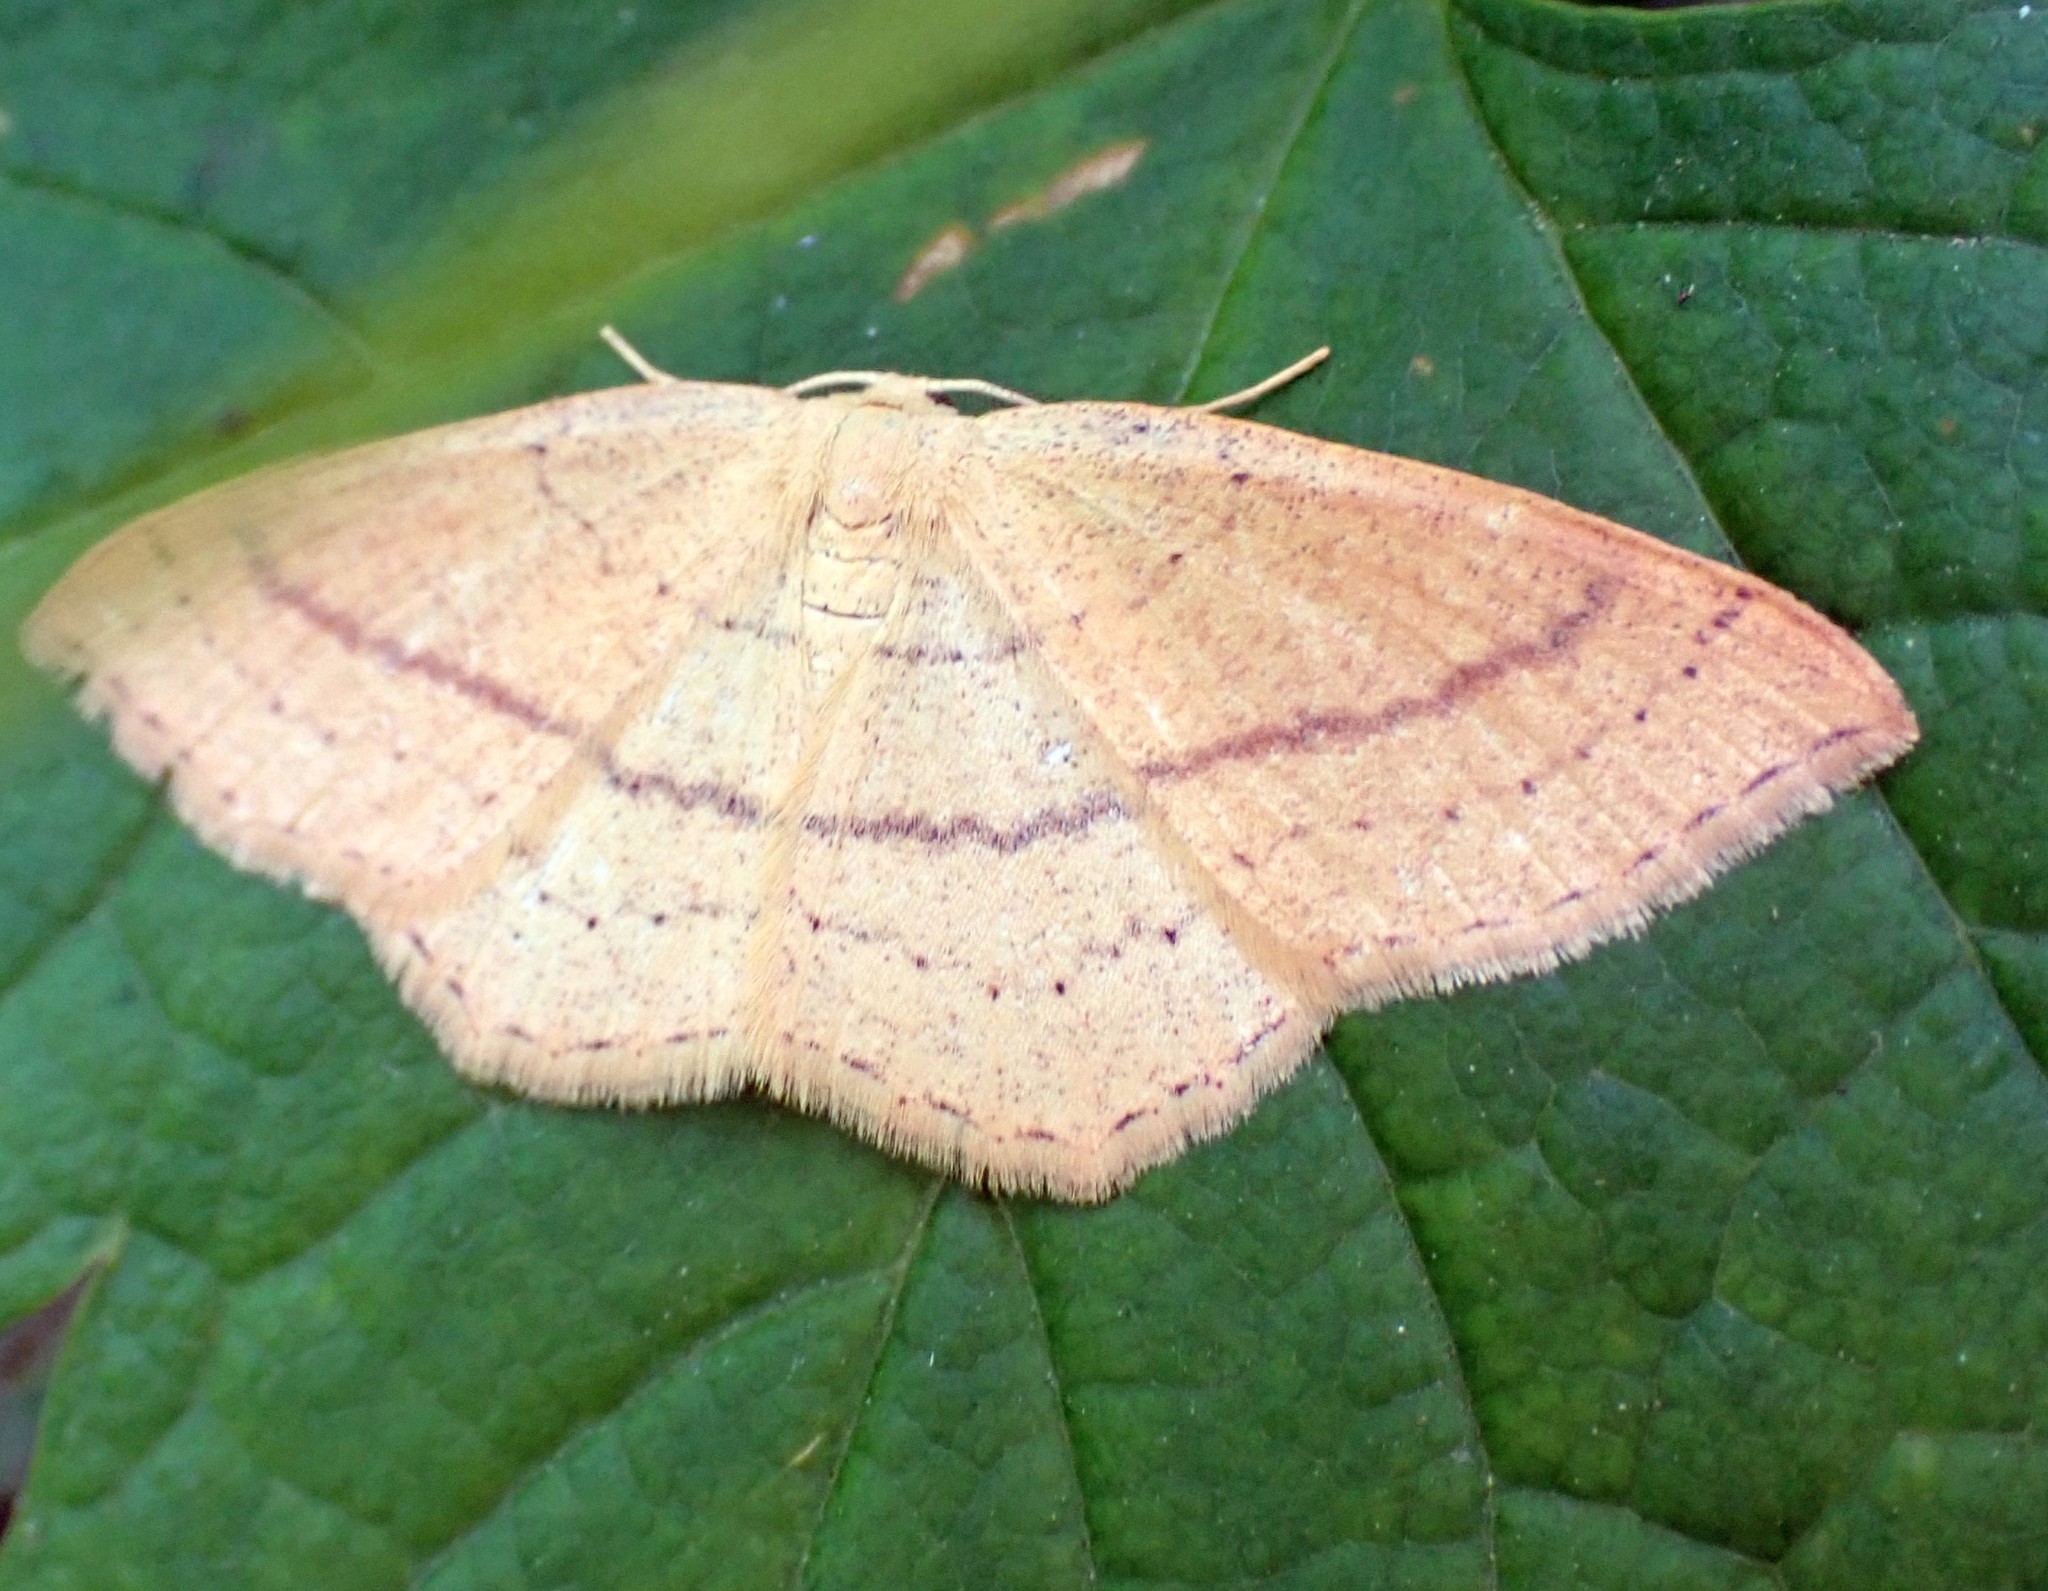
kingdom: Animalia
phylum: Arthropoda
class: Insecta
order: Lepidoptera
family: Geometridae
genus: Cyclophora
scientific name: Cyclophora linearia
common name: Clay triple-lines
